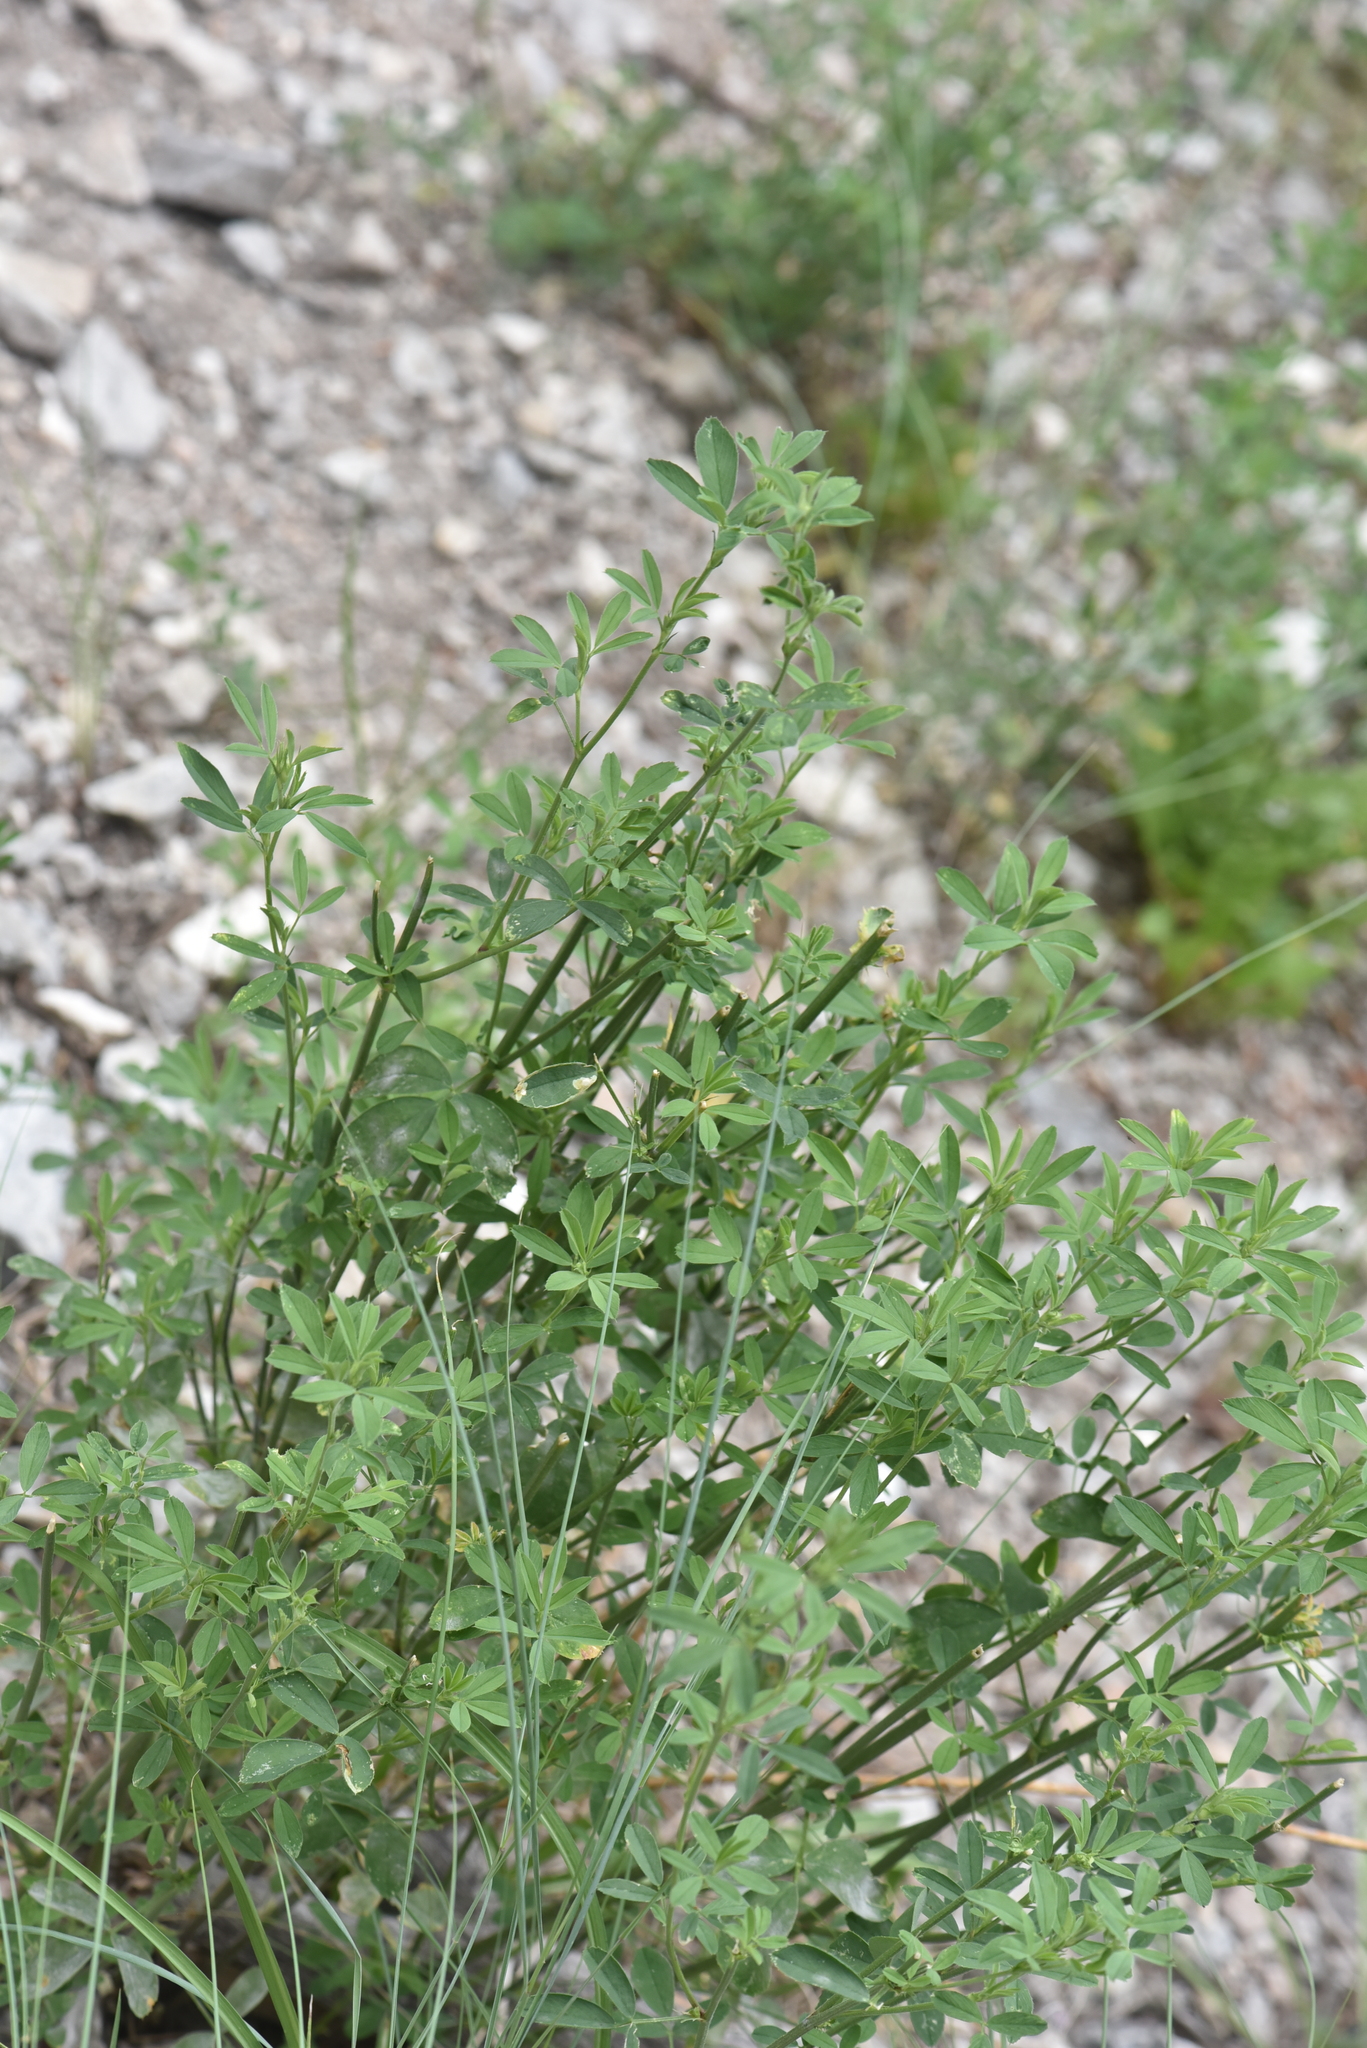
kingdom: Plantae
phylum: Tracheophyta
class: Magnoliopsida
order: Fabales
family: Fabaceae
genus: Medicago
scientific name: Medicago
